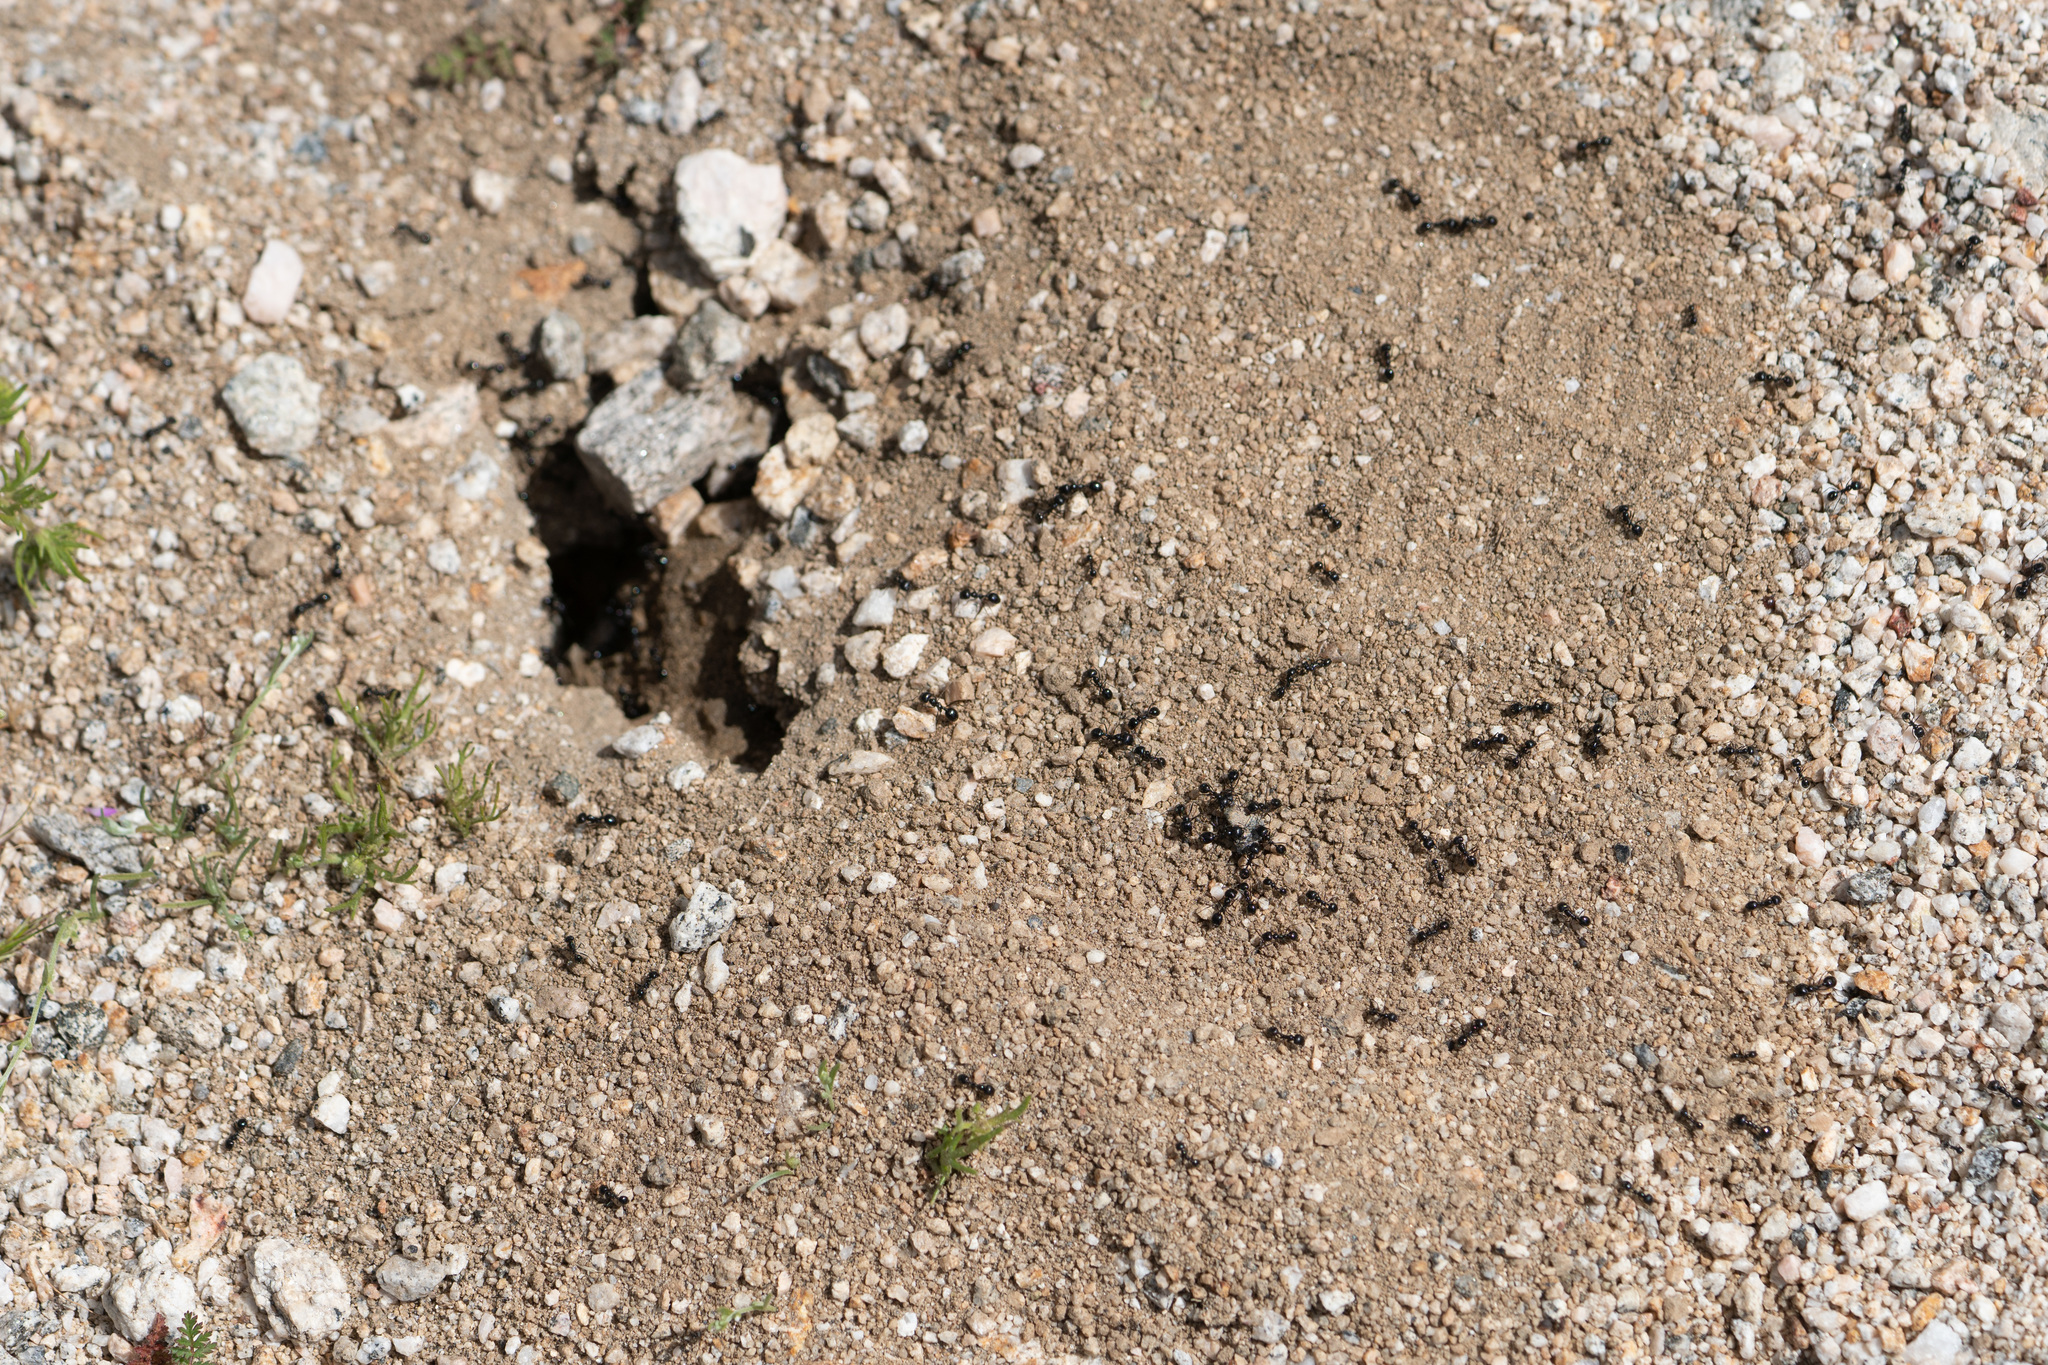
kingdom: Animalia
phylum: Arthropoda
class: Insecta
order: Hymenoptera
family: Formicidae
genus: Messor
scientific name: Messor pergandei
